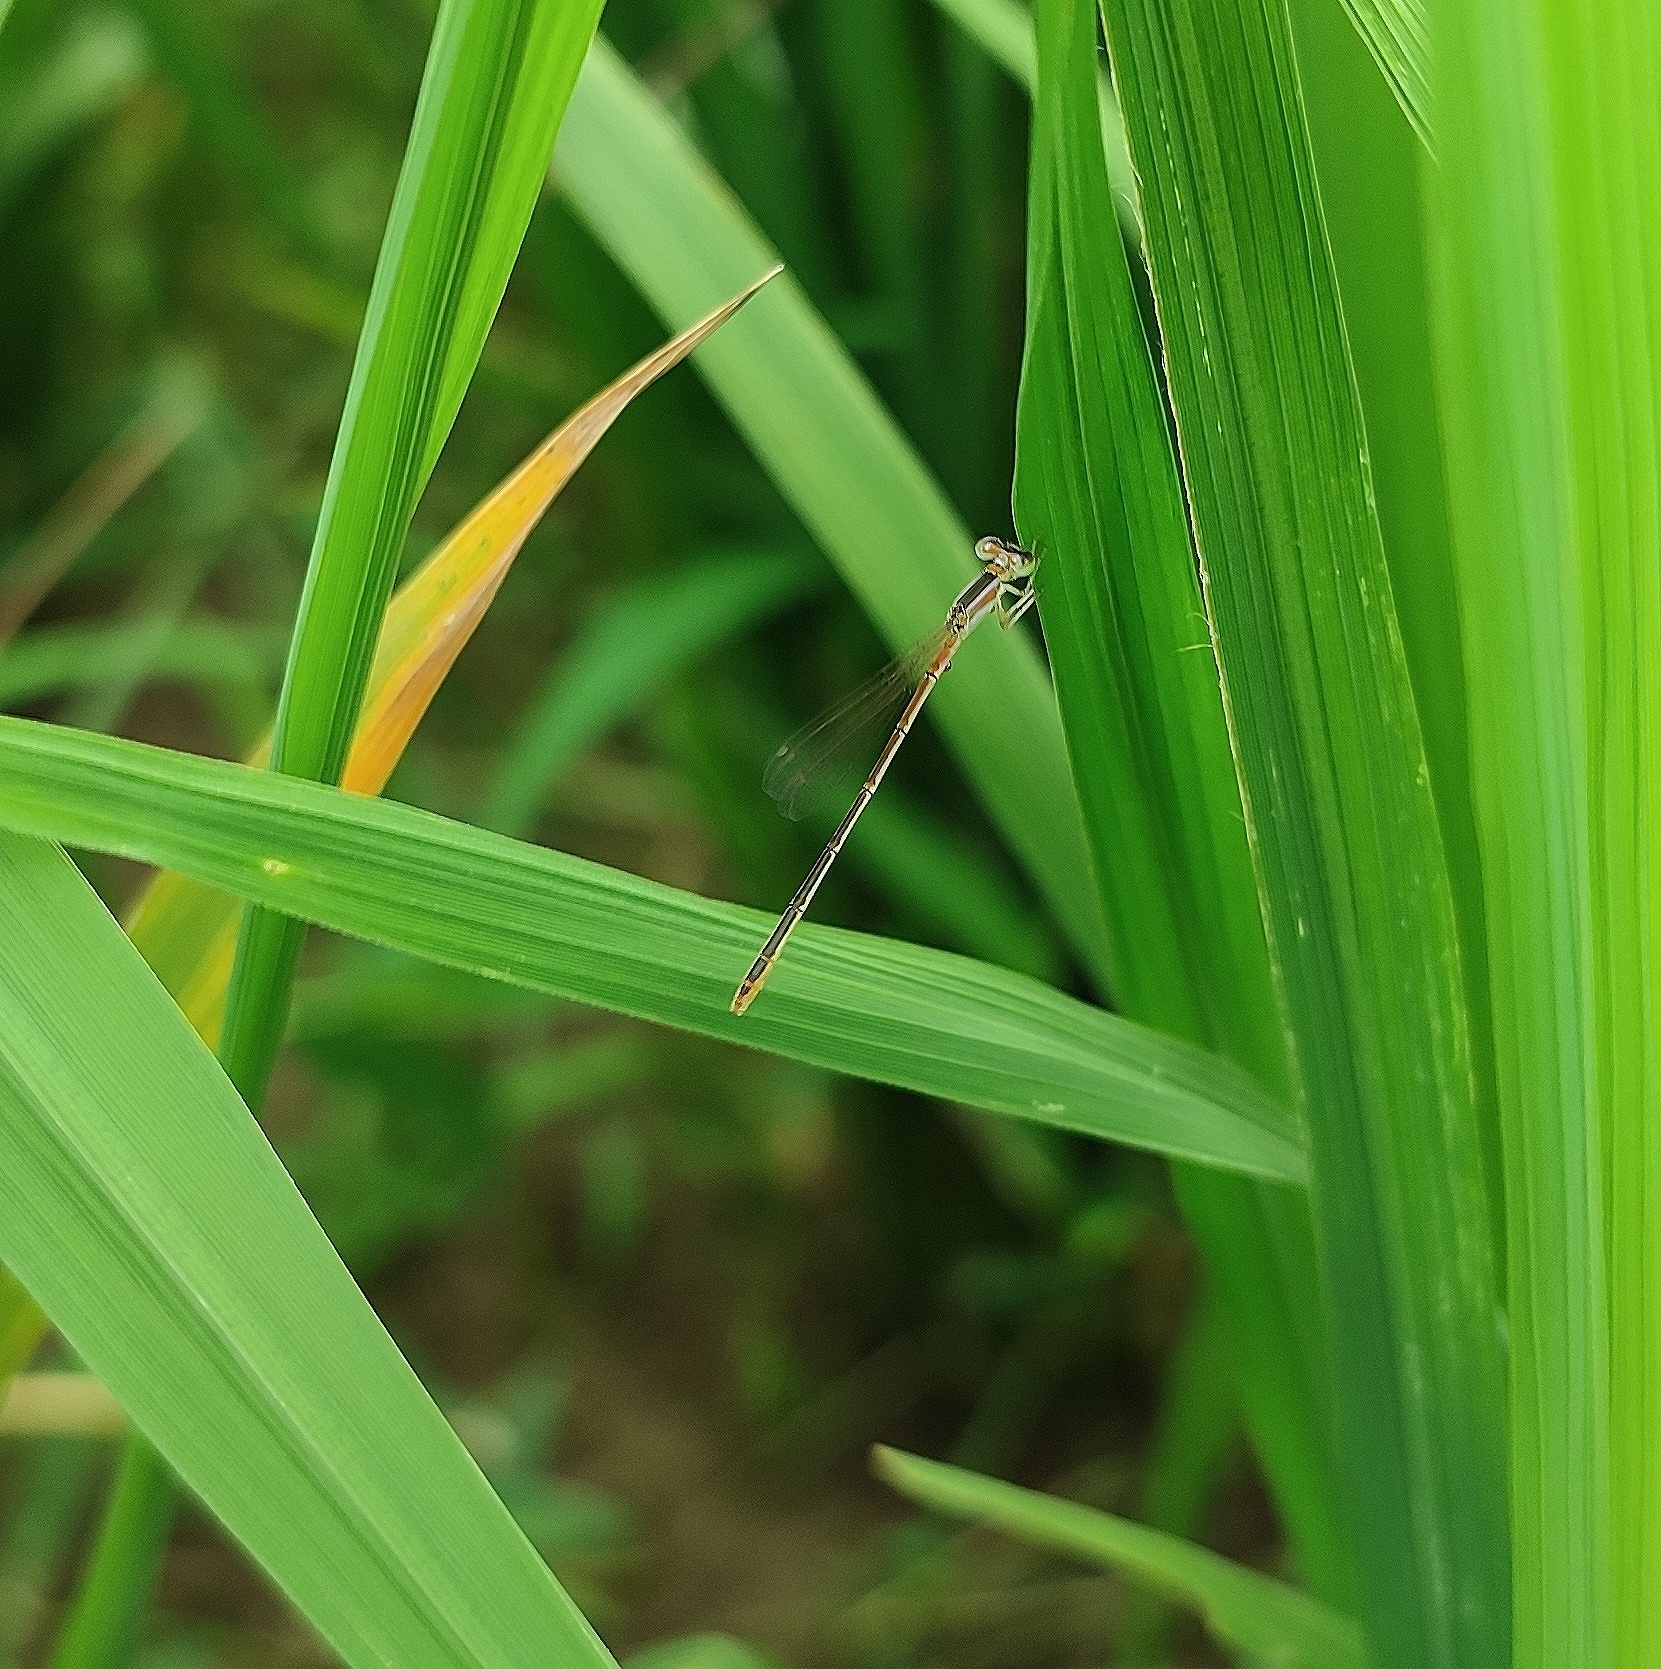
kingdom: Animalia
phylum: Arthropoda
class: Insecta
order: Odonata
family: Coenagrionidae
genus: Agriocnemis
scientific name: Agriocnemis pygmaea
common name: Pygmy wisp
